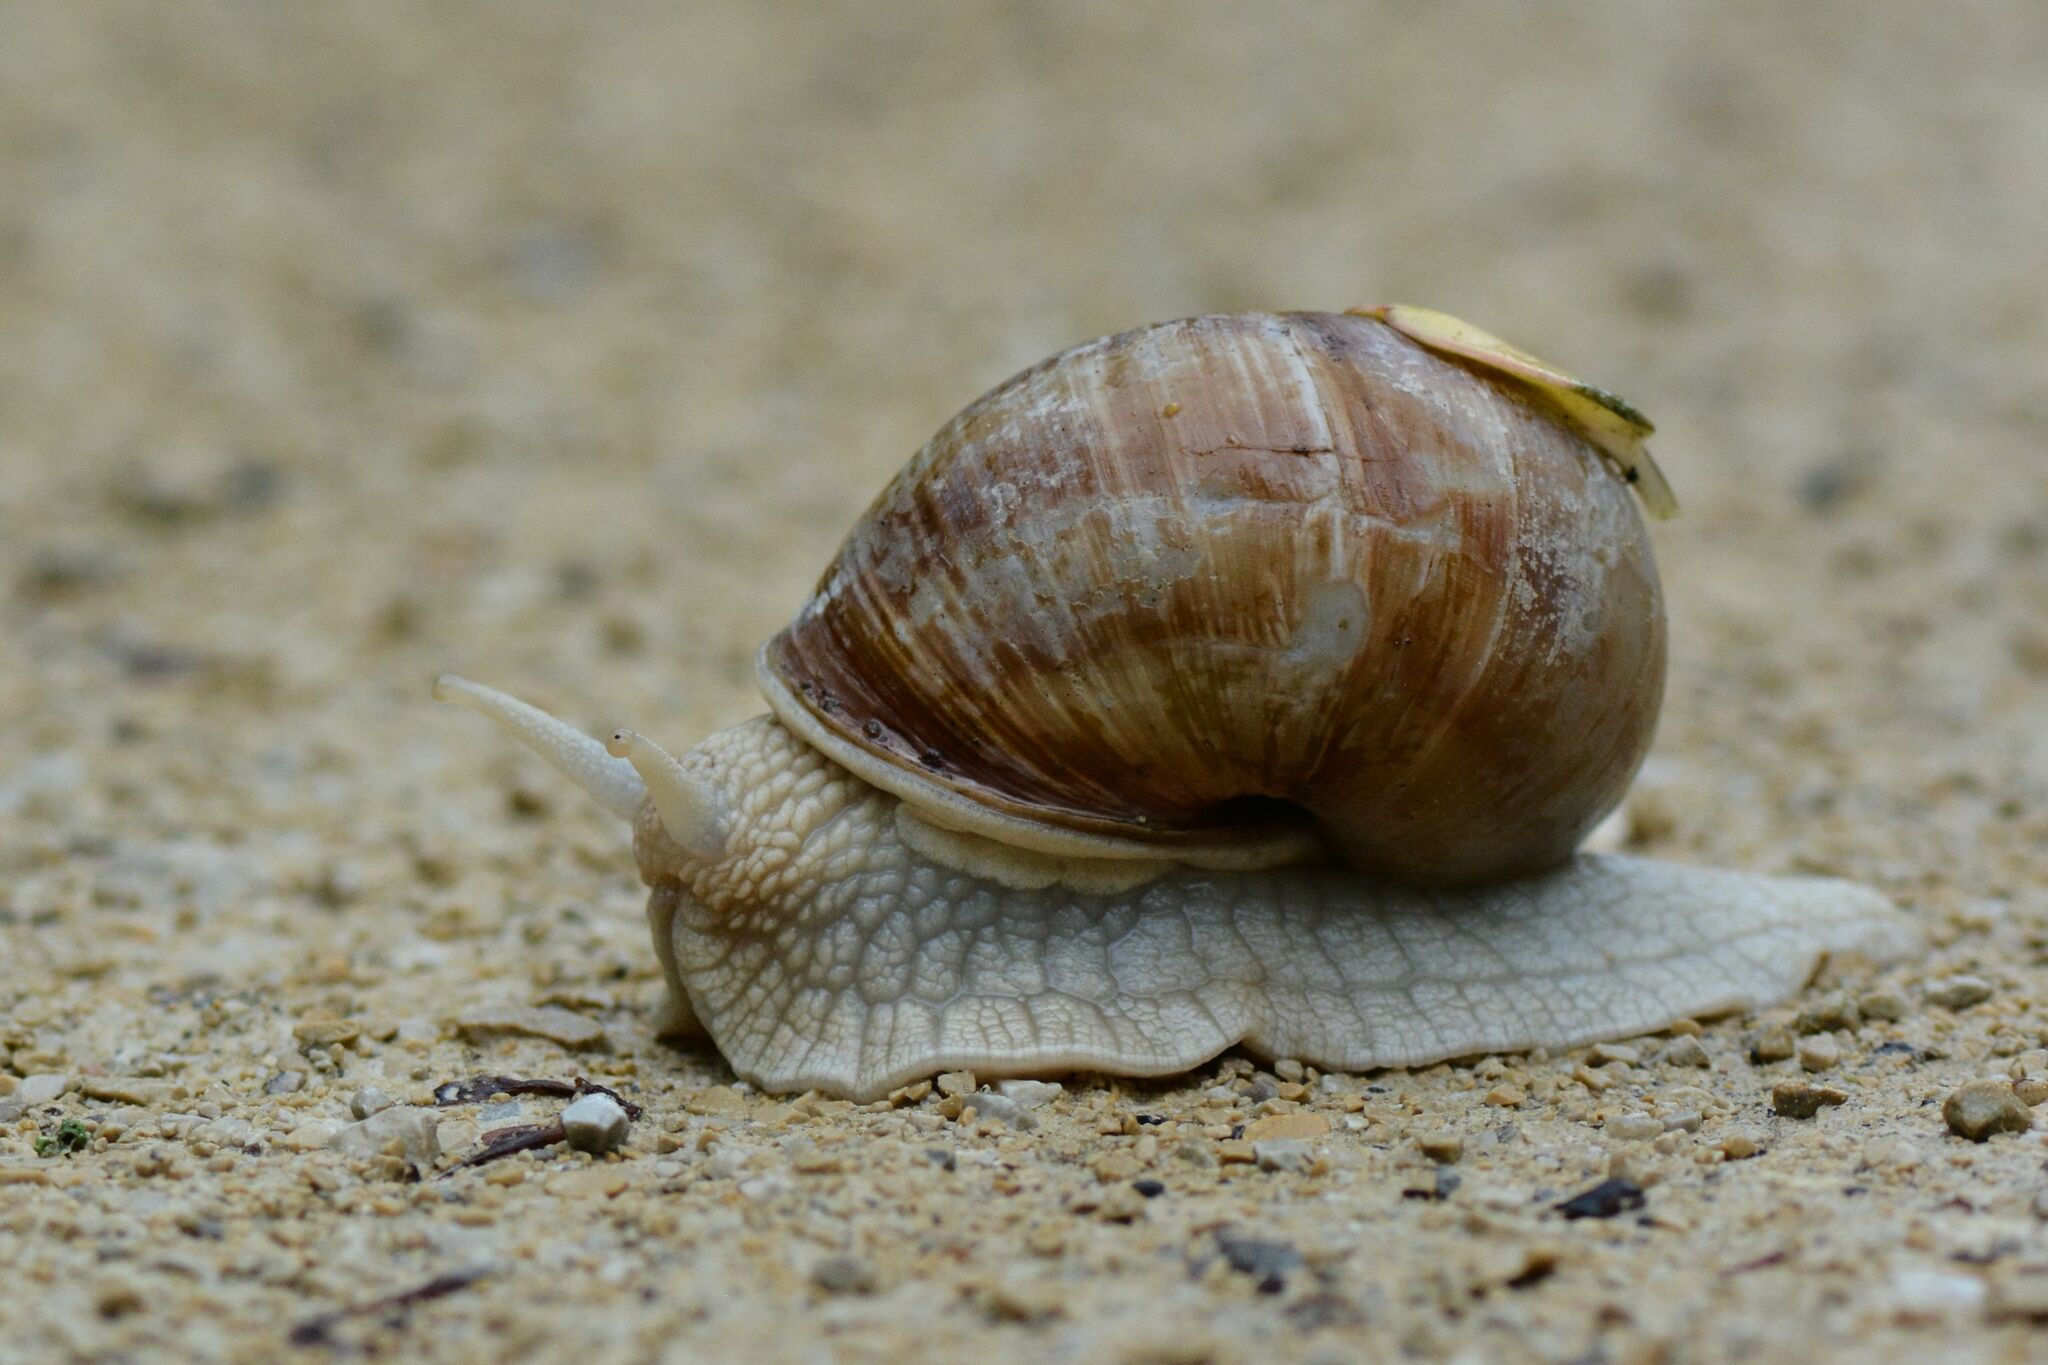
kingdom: Animalia
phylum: Mollusca
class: Gastropoda
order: Stylommatophora
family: Helicidae
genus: Helix
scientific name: Helix pomatia
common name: Roman snail
